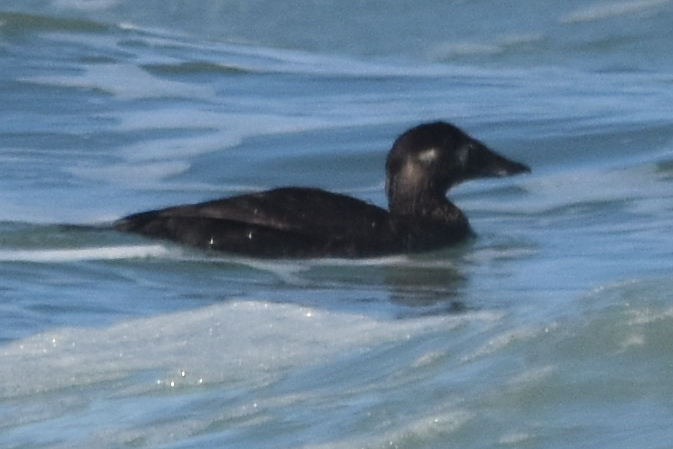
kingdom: Animalia
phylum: Chordata
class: Aves
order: Anseriformes
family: Anatidae
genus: Melanitta
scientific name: Melanitta perspicillata
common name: Surf scoter
